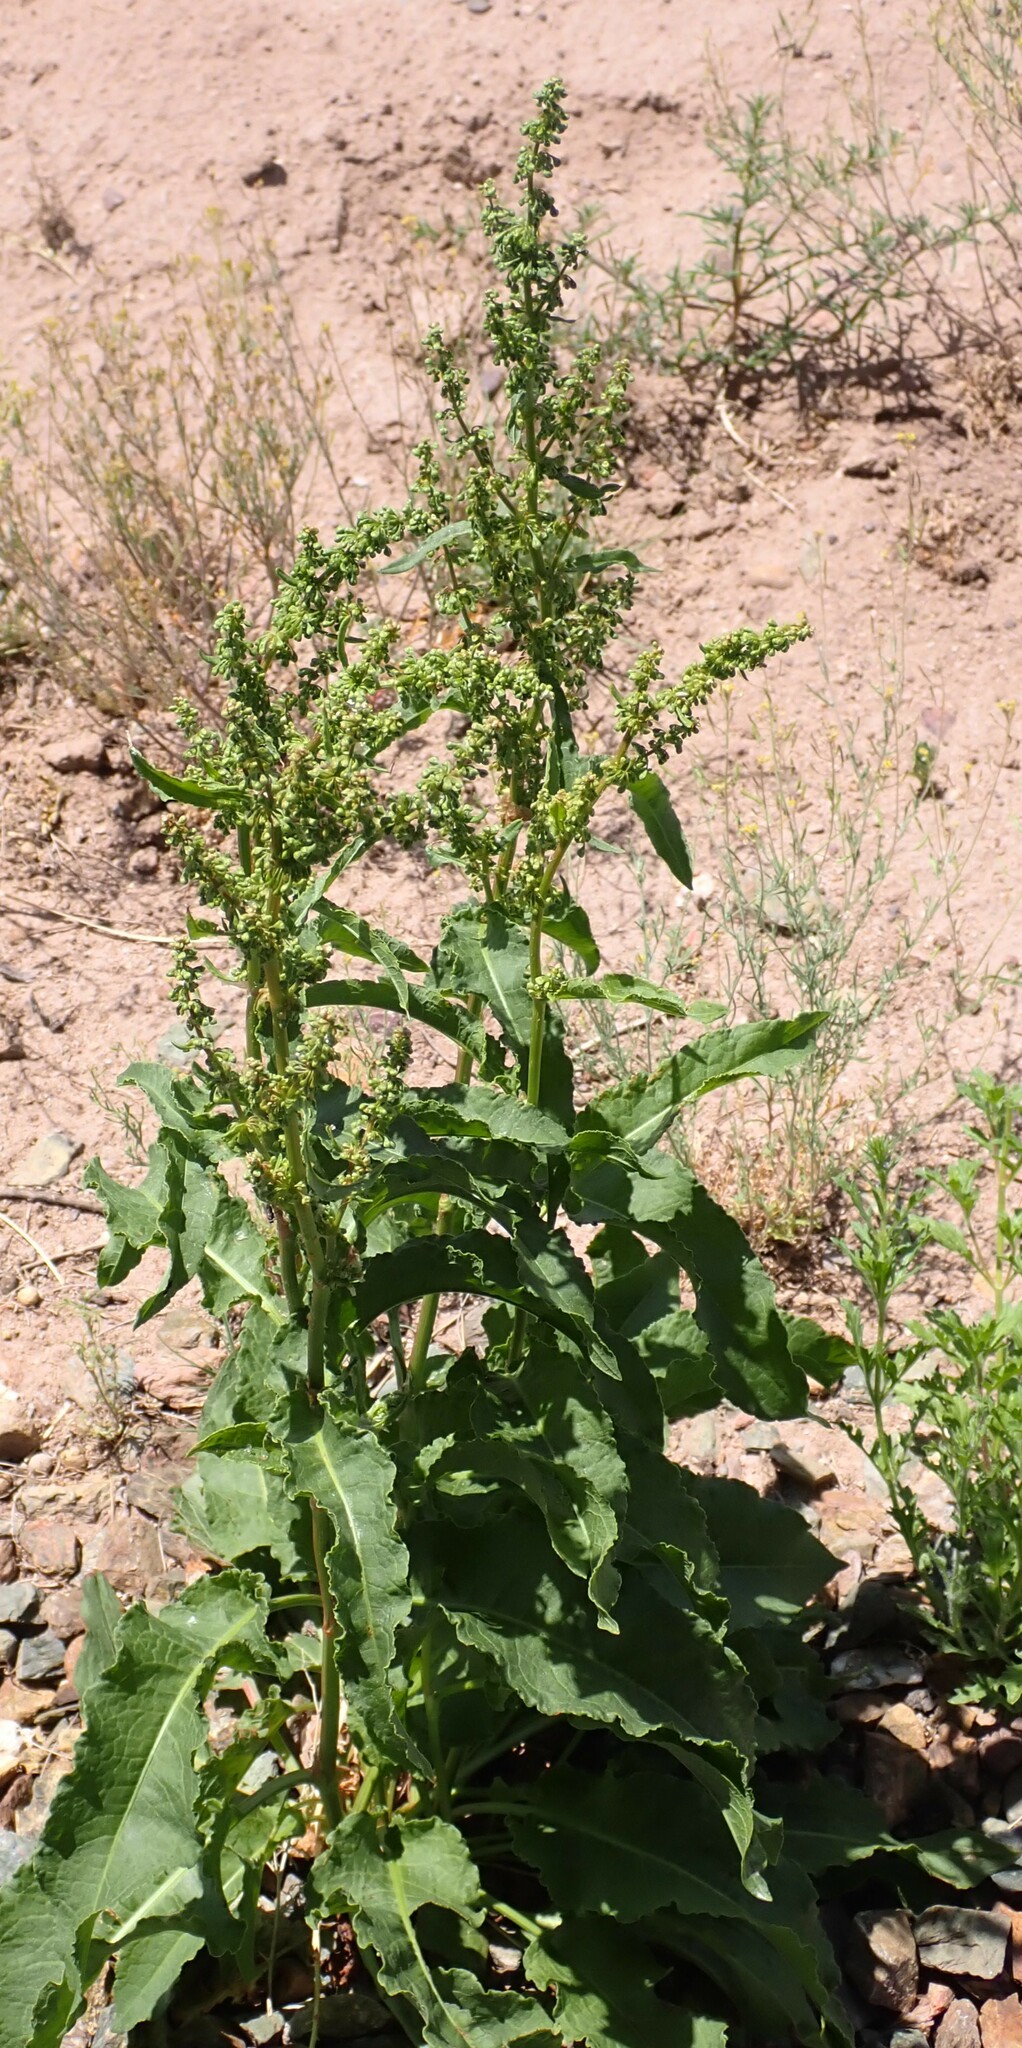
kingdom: Plantae
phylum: Tracheophyta
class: Magnoliopsida
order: Caryophyllales
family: Polygonaceae
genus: Rumex
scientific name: Rumex crispus
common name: Curled dock
